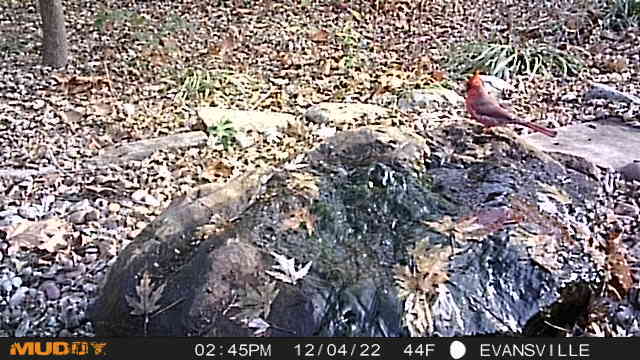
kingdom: Animalia
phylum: Chordata
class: Aves
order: Passeriformes
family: Cardinalidae
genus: Cardinalis
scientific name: Cardinalis cardinalis
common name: Northern cardinal
